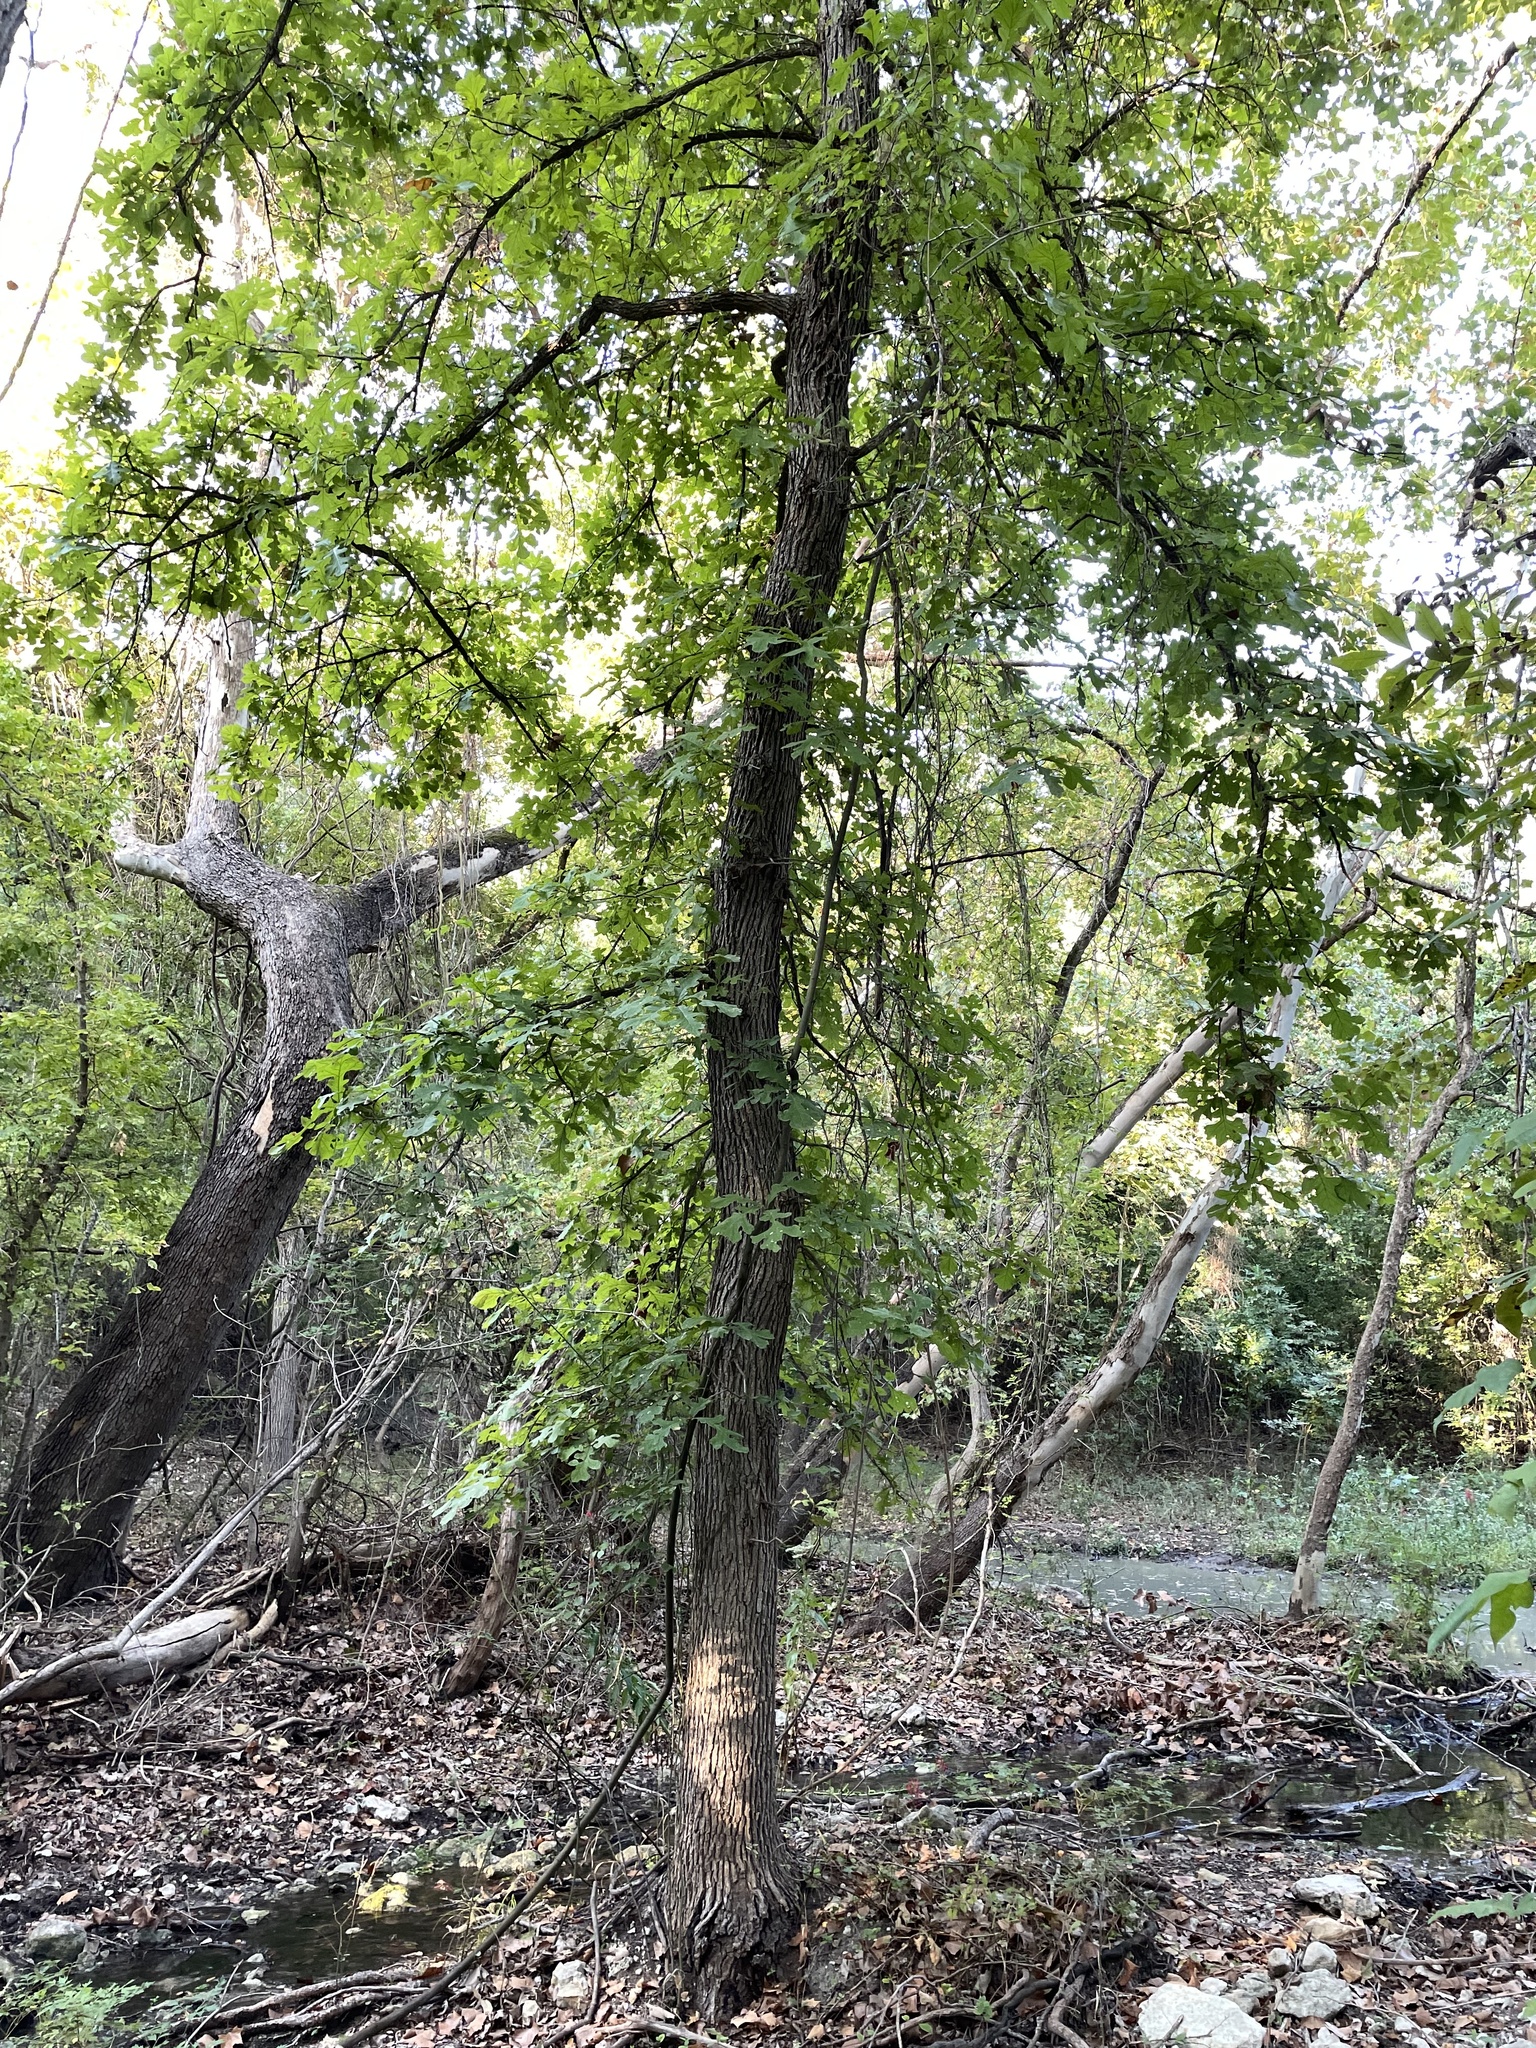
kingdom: Plantae
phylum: Tracheophyta
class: Magnoliopsida
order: Fagales
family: Fagaceae
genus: Quercus
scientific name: Quercus macrocarpa
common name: Bur oak
